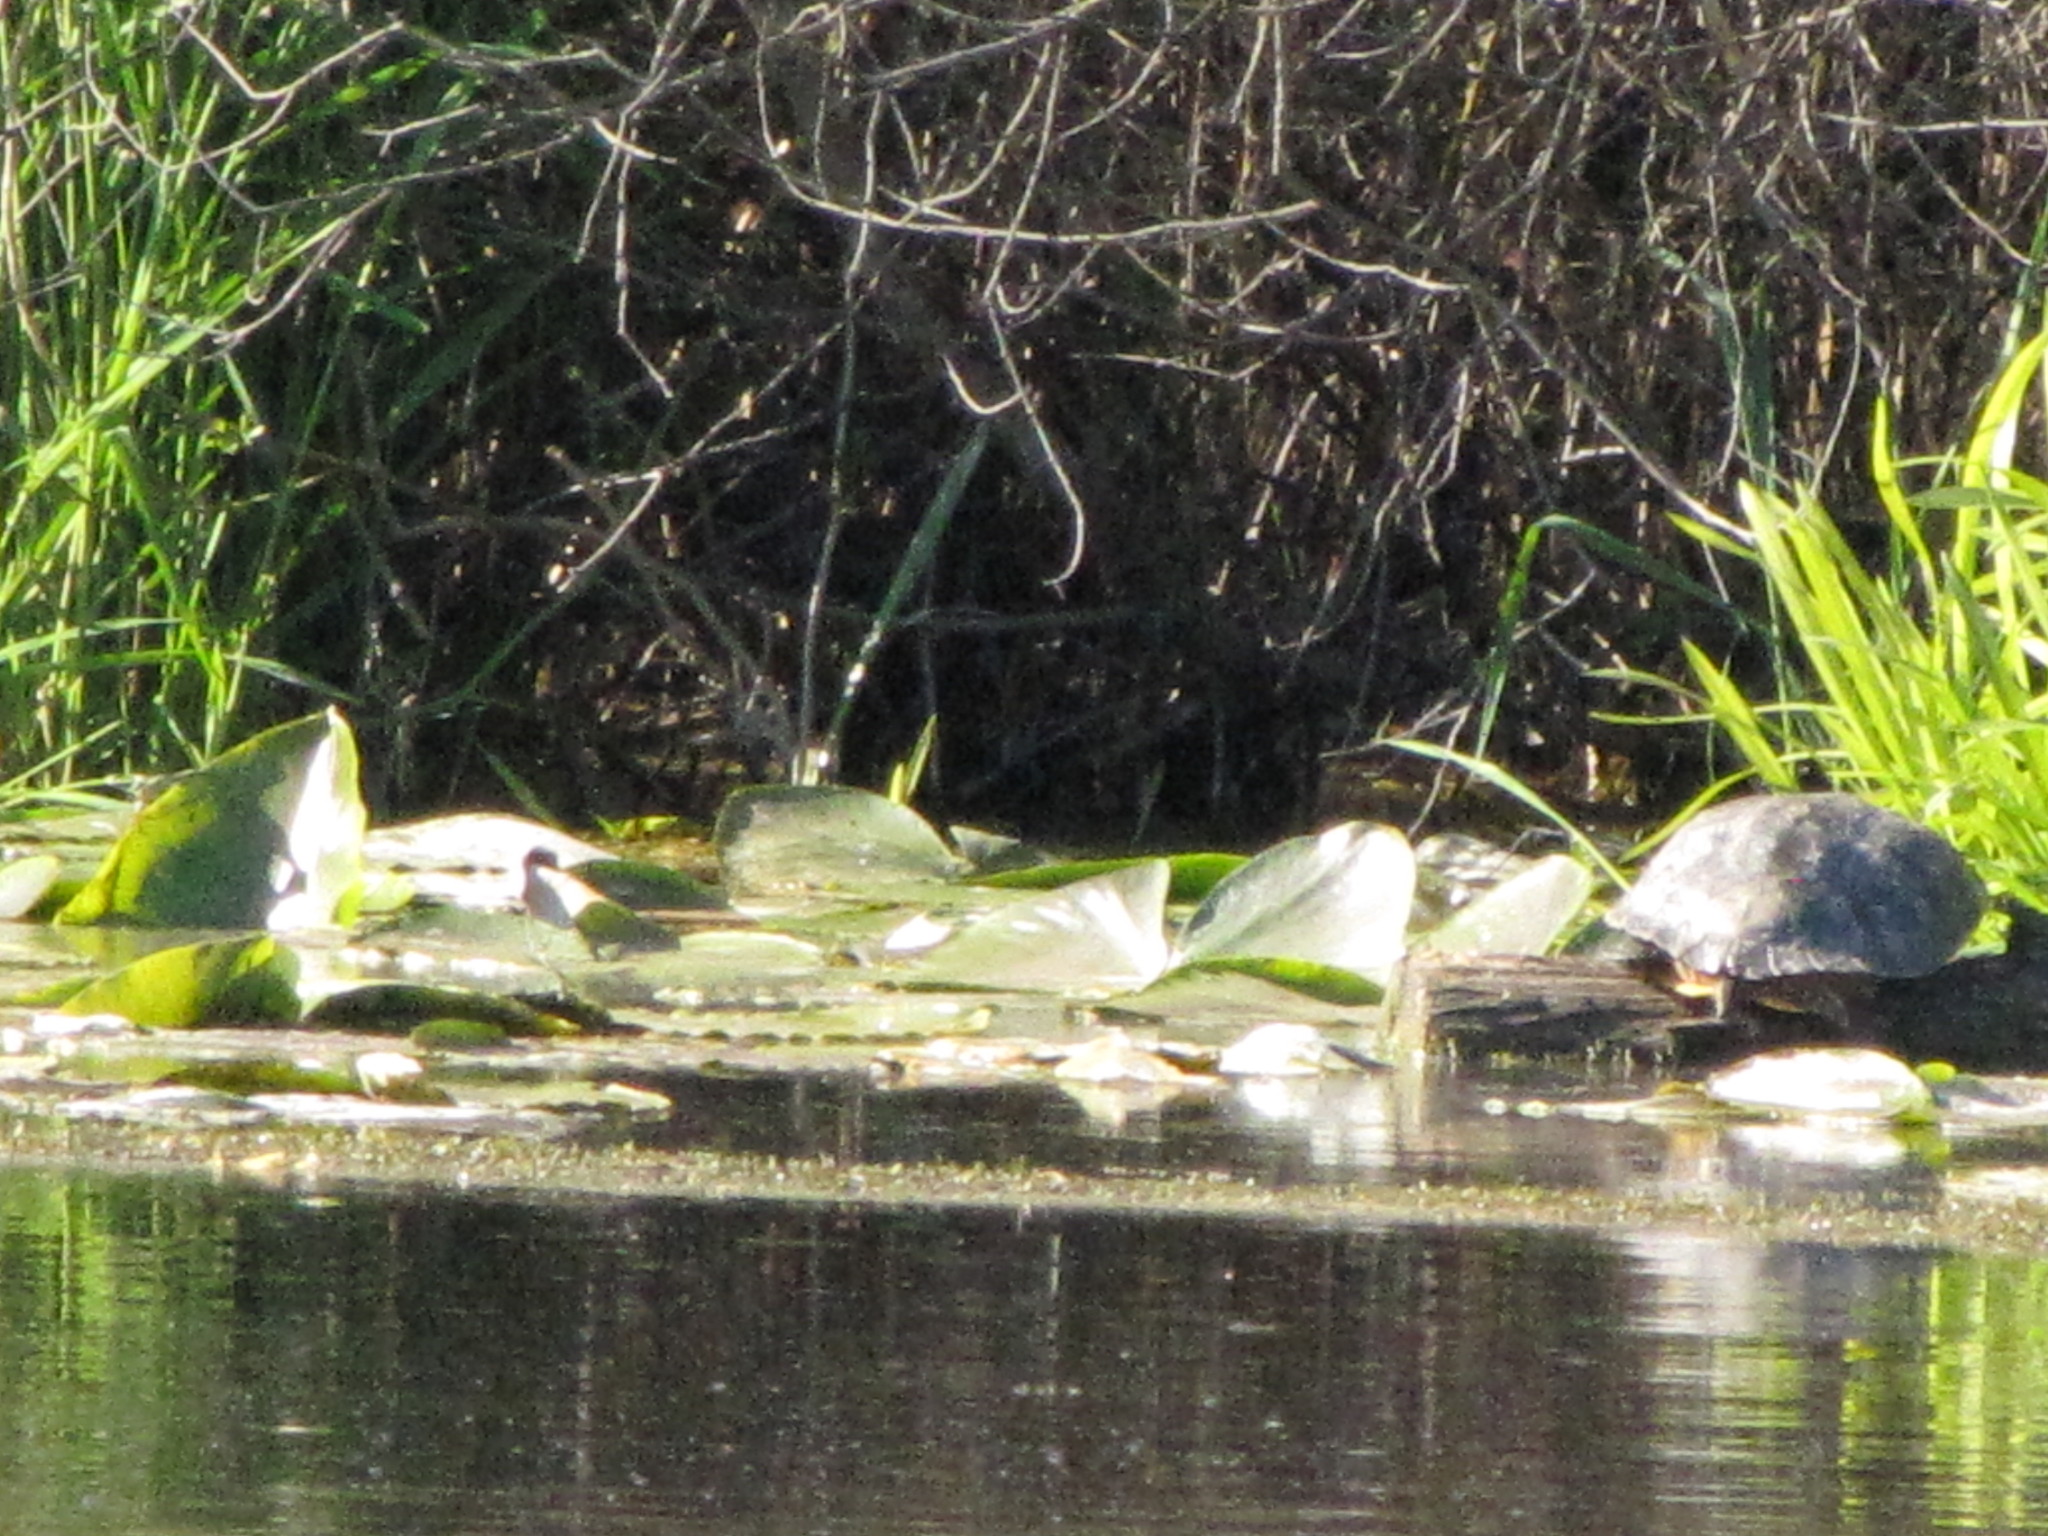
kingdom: Animalia
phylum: Chordata
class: Testudines
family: Emydidae
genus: Trachemys
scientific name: Trachemys scripta
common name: Slider
